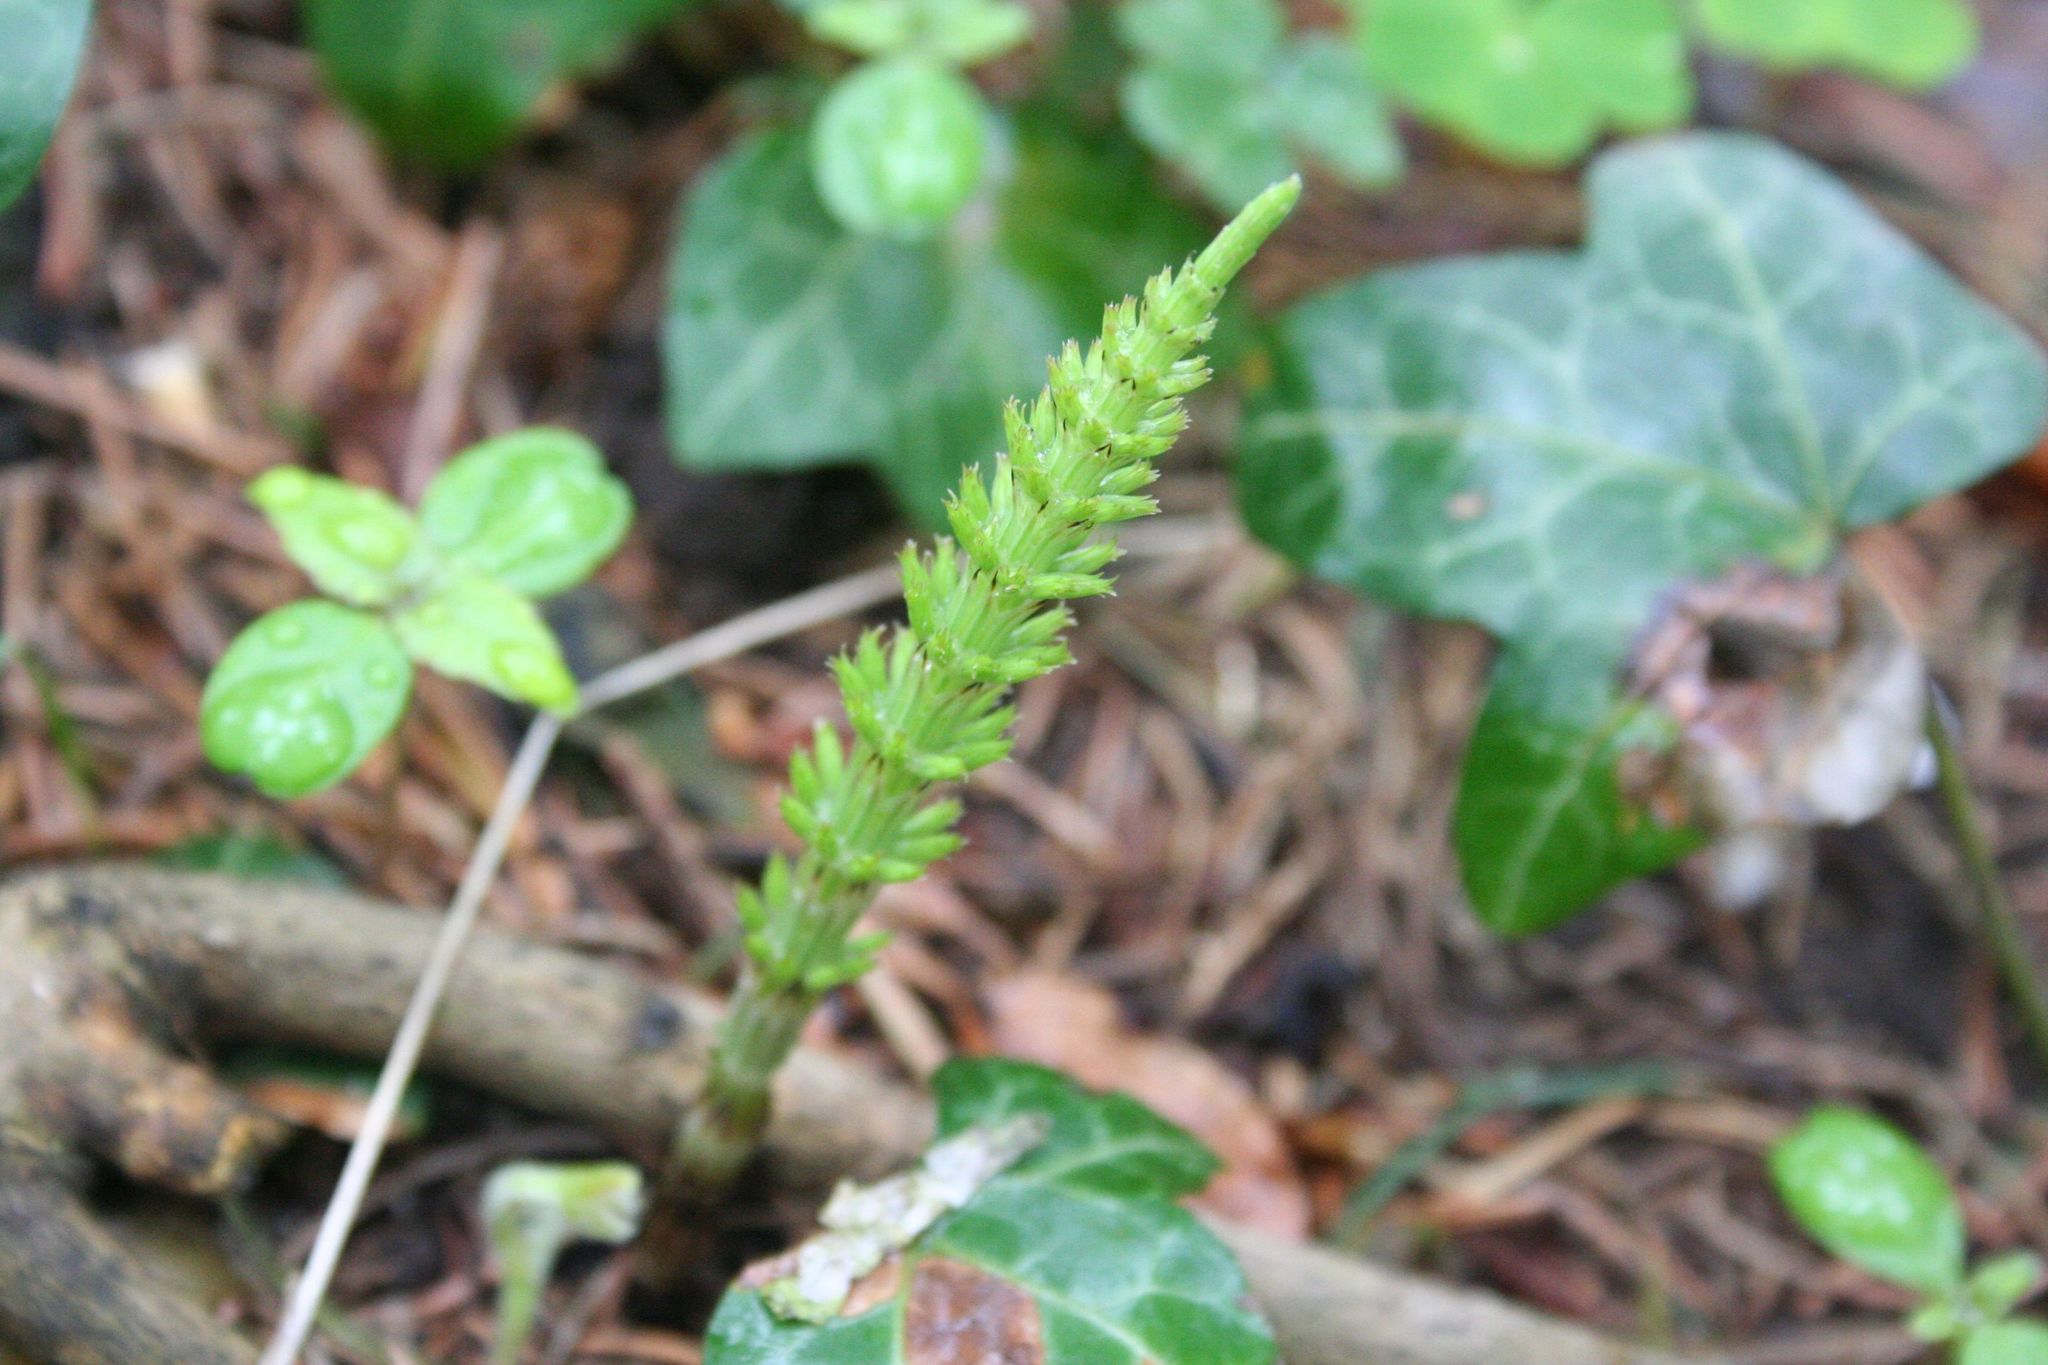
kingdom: Plantae
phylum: Tracheophyta
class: Polypodiopsida
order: Equisetales
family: Equisetaceae
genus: Equisetum
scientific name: Equisetum arvense
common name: Field horsetail
